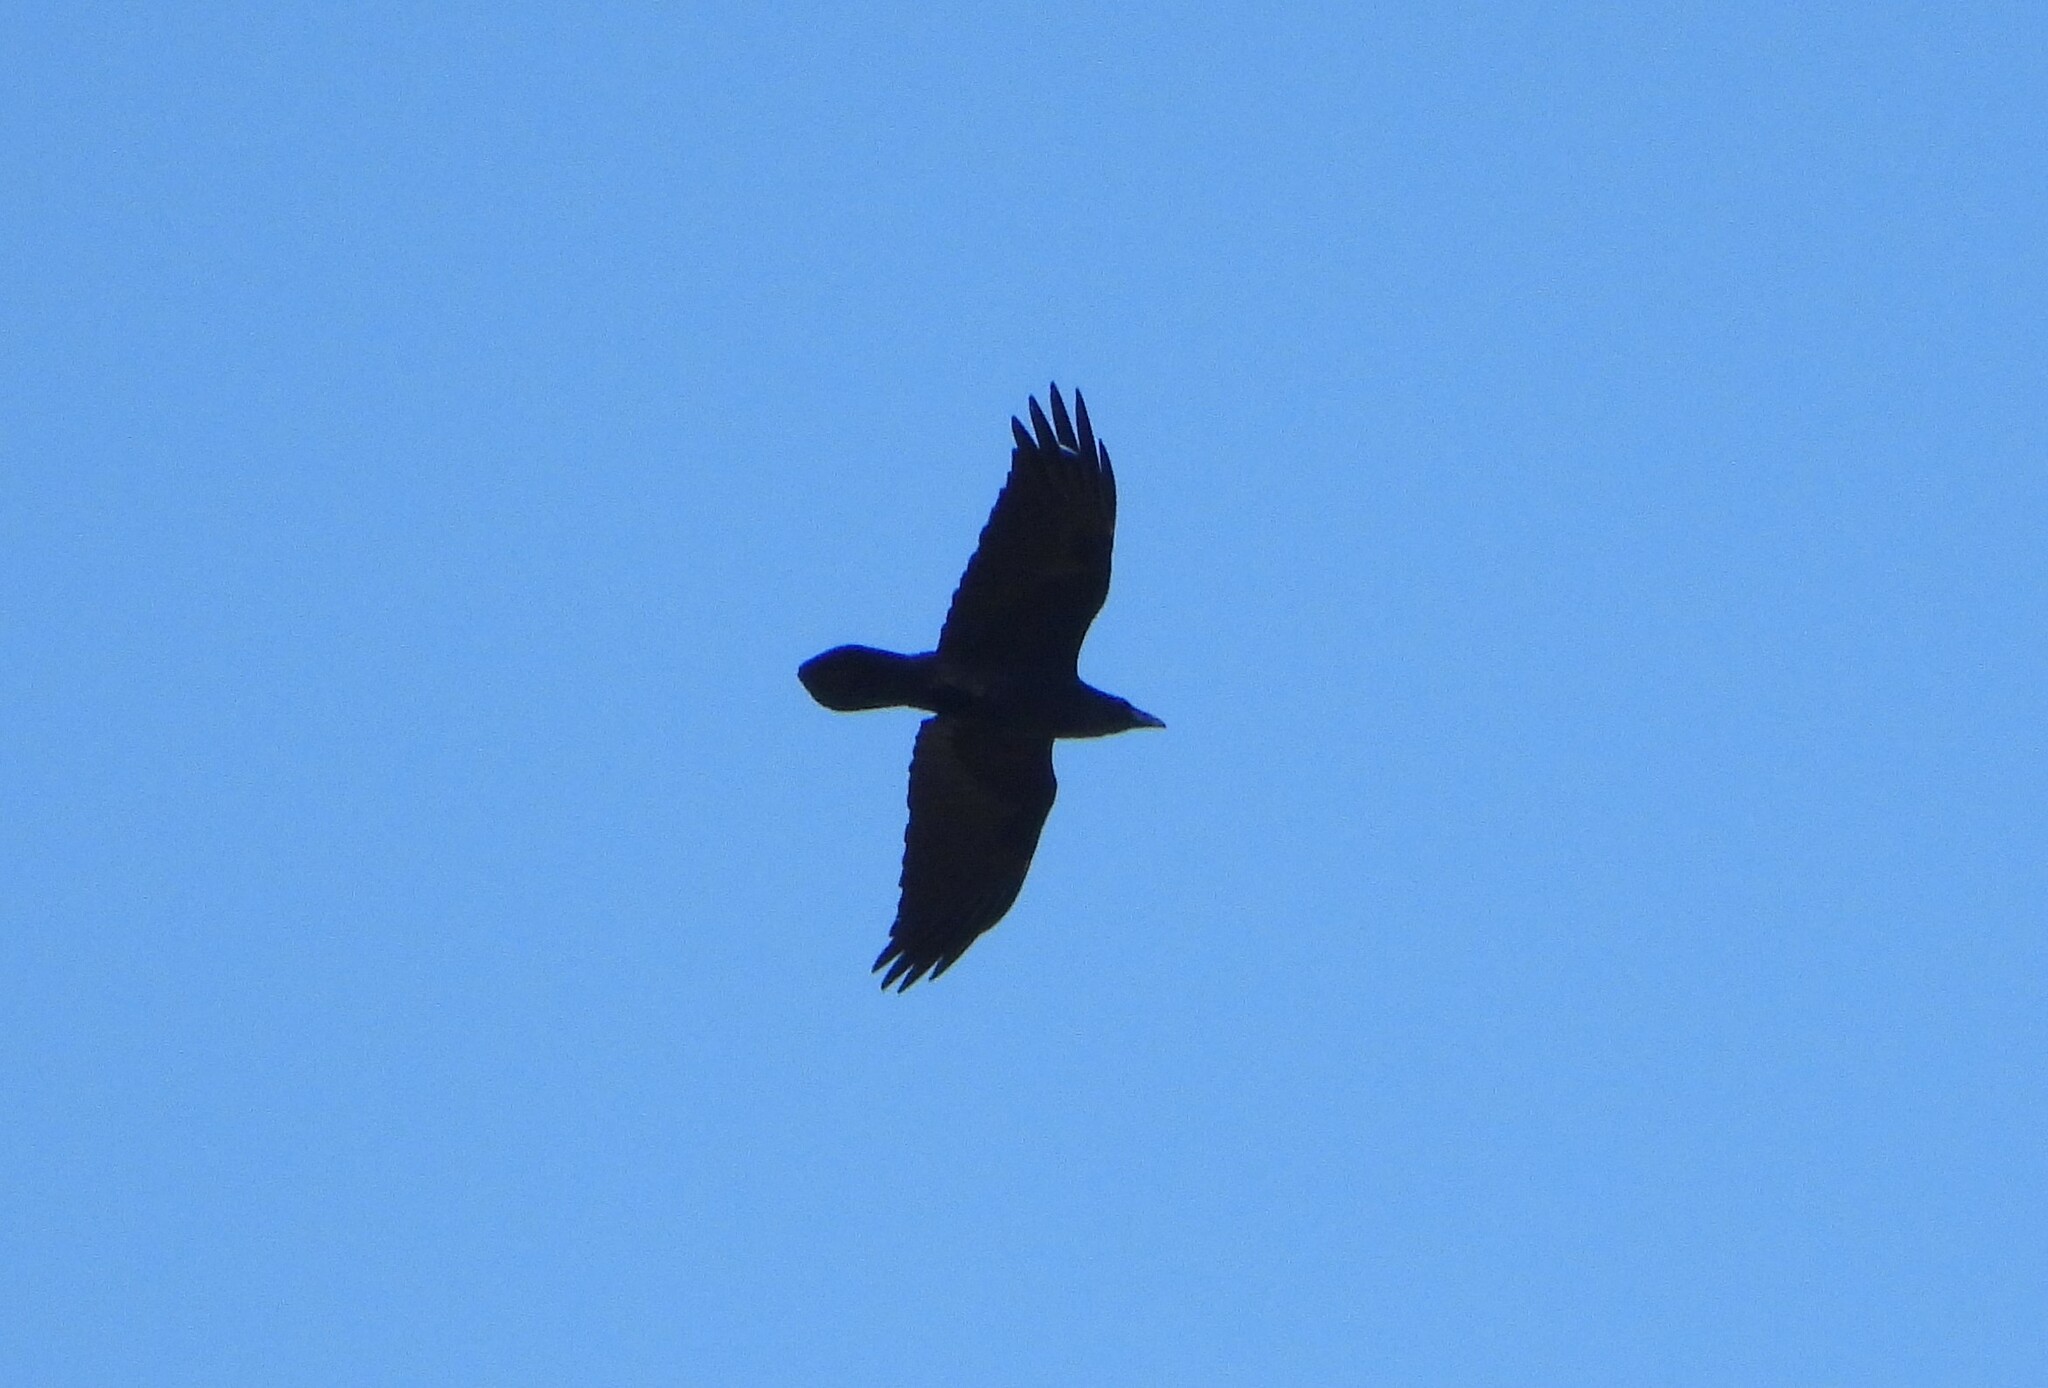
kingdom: Animalia
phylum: Chordata
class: Aves
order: Passeriformes
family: Corvidae
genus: Corvus
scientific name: Corvus corax
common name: Common raven
